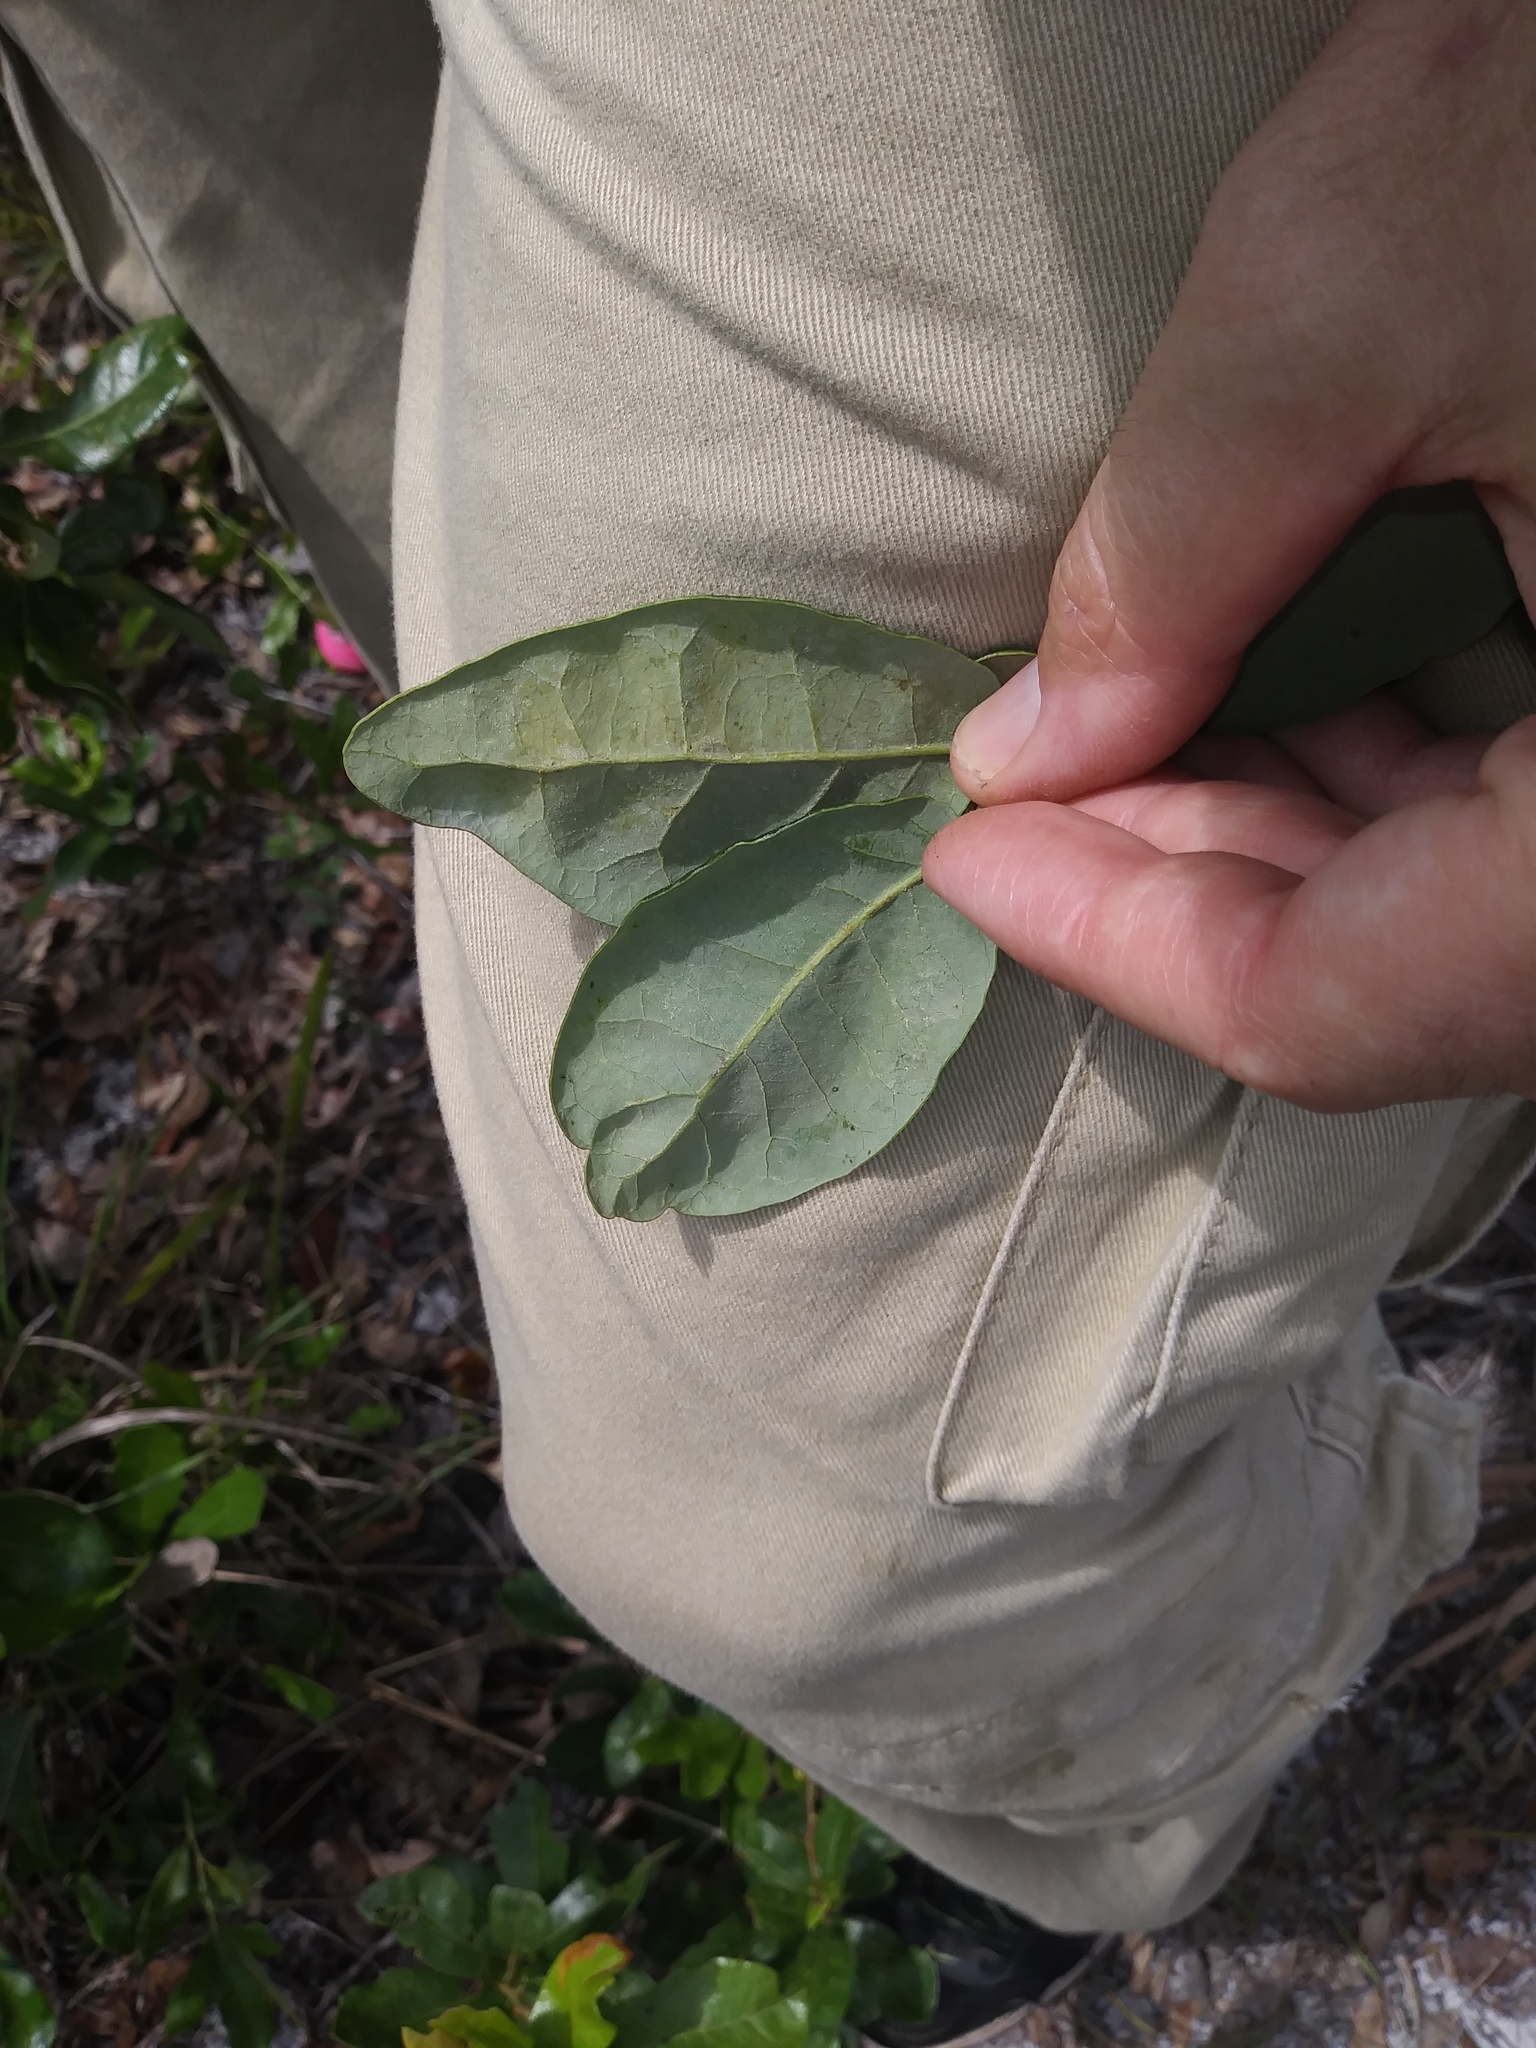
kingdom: Plantae
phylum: Tracheophyta
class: Magnoliopsida
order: Fagales
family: Fagaceae
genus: Quercus
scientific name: Quercus chapmanii
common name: Chapman oak
